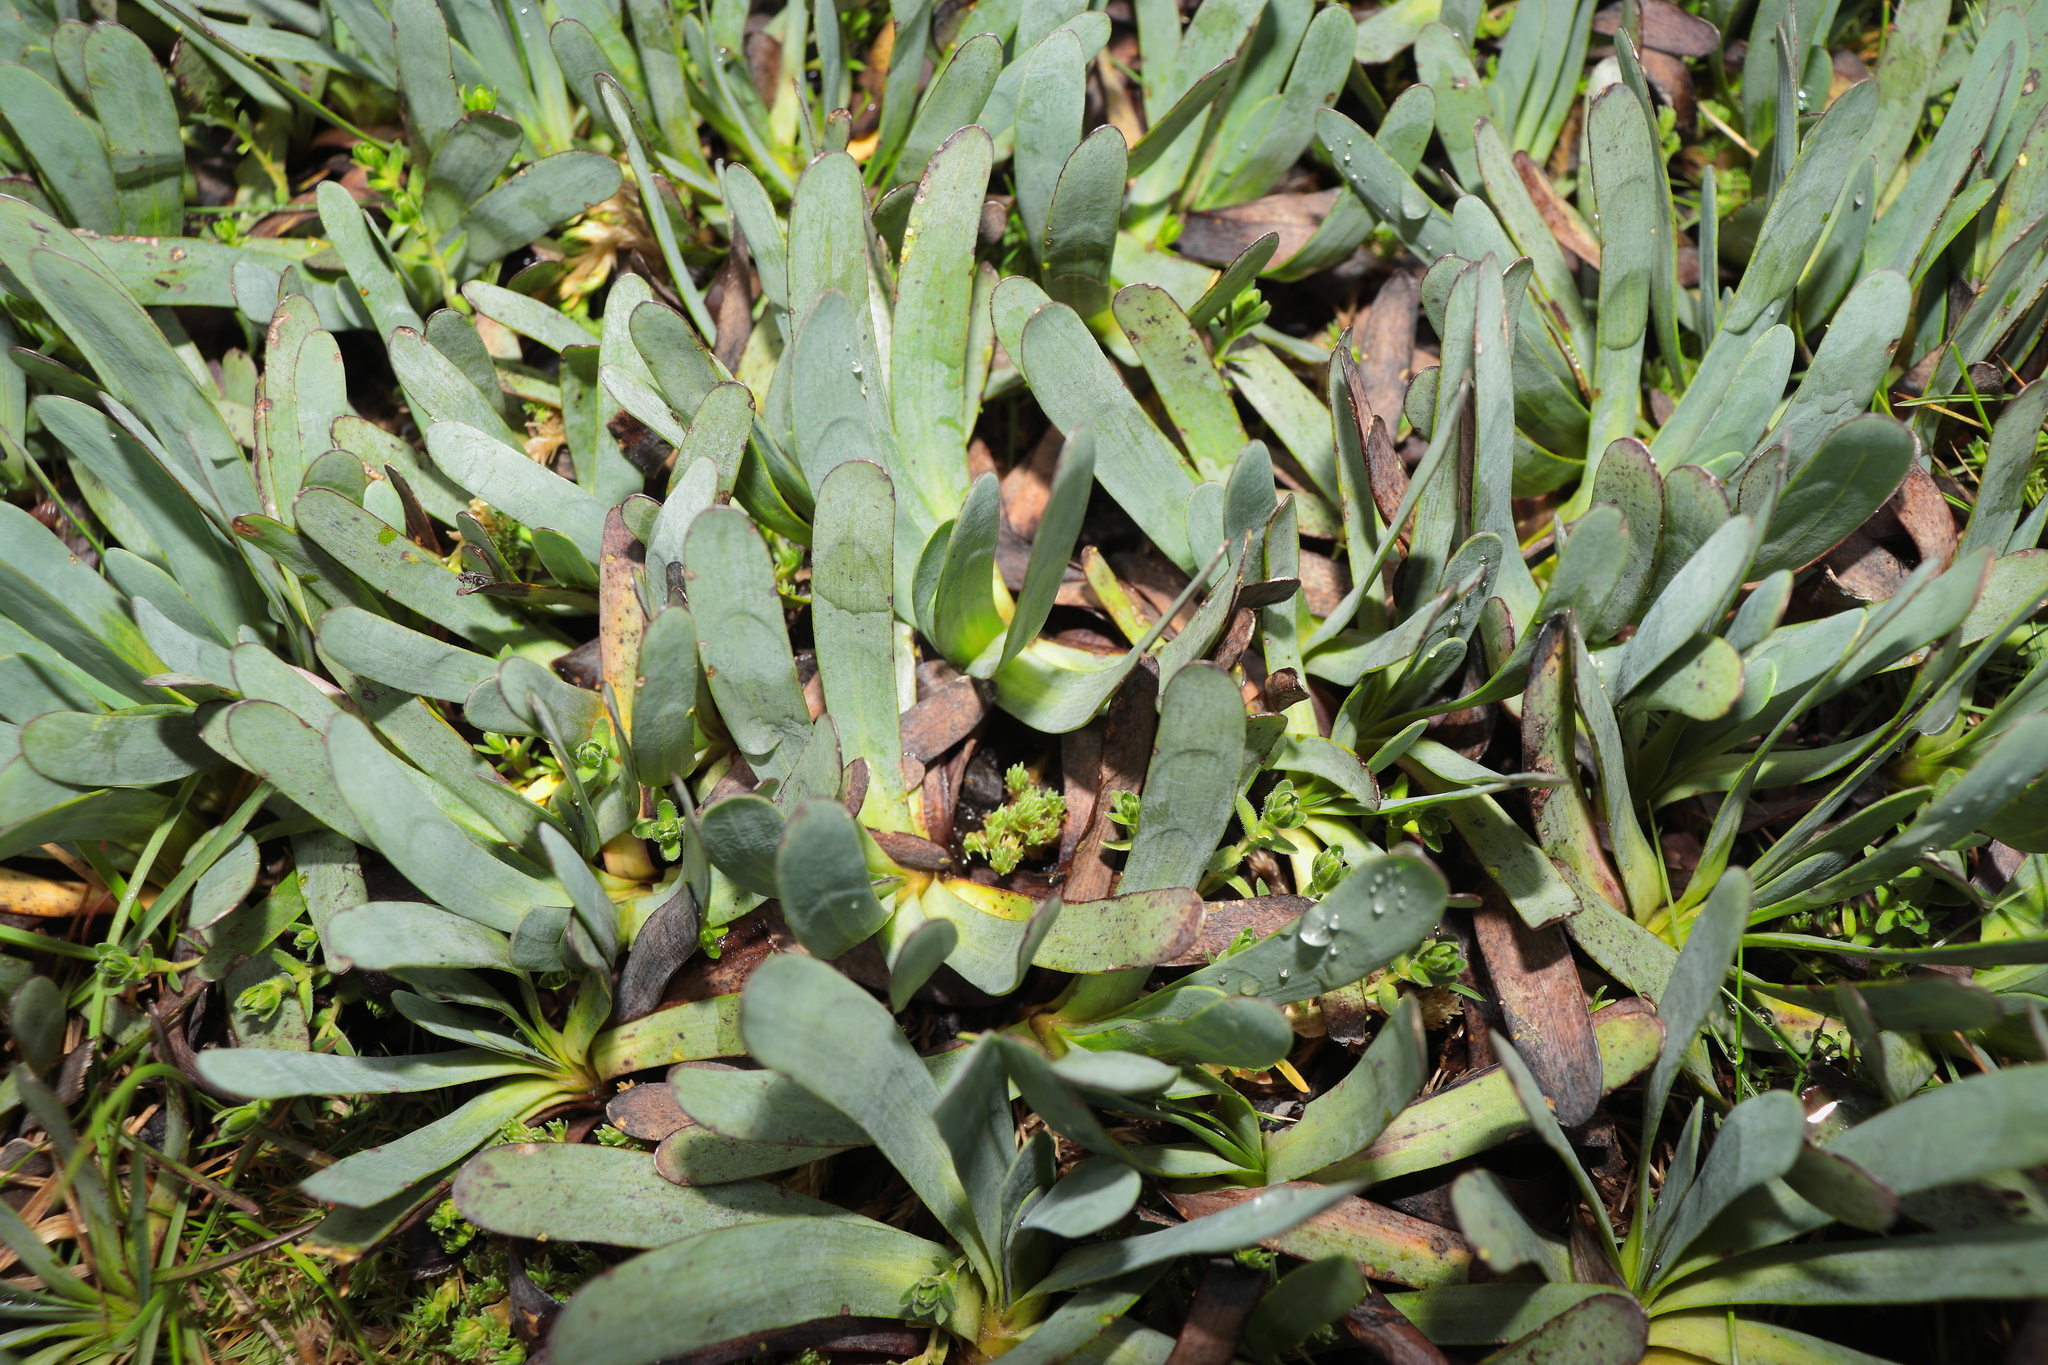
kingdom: Plantae
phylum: Tracheophyta
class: Magnoliopsida
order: Asterales
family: Asteraceae
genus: Rockhausenia
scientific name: Rockhausenia nubigena
